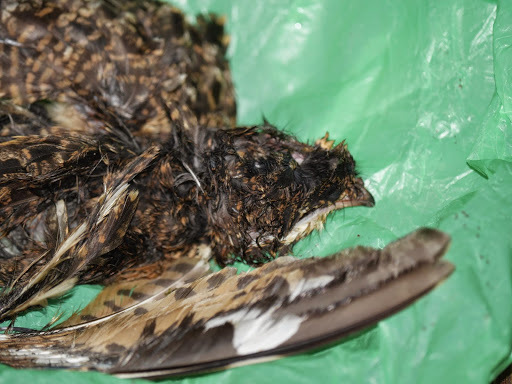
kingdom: Animalia
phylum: Chordata
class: Aves
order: Caprimulgiformes
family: Caprimulgidae
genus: Caprimulgus
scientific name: Caprimulgus natalensis
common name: Swamp nightjar
